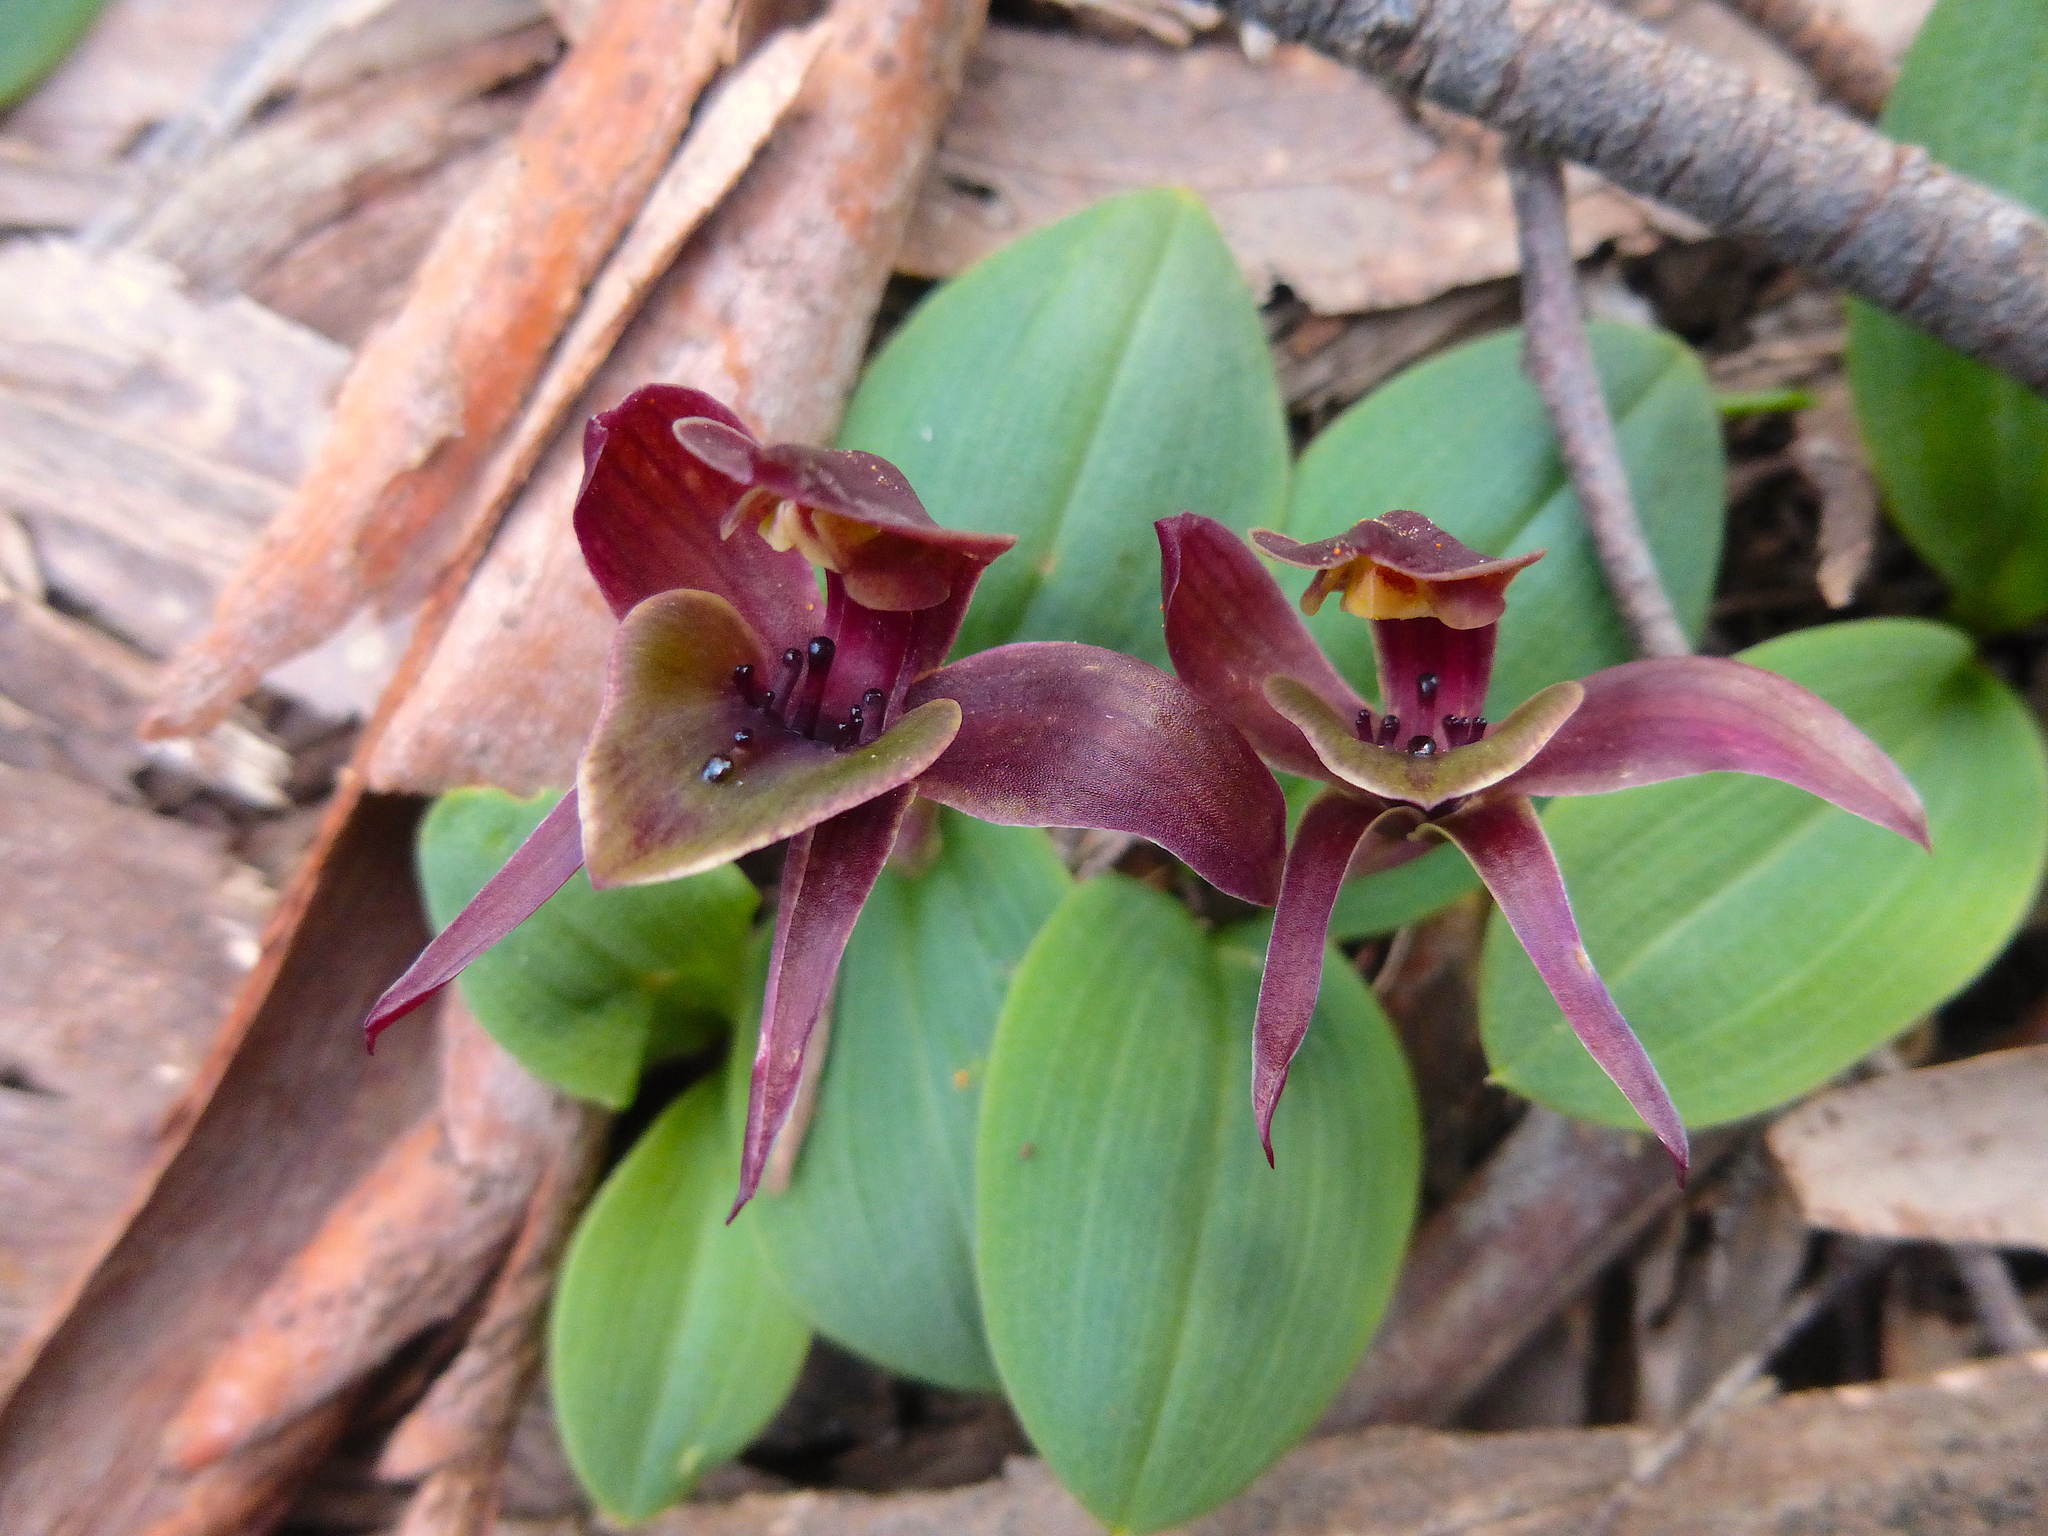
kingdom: Plantae
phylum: Tracheophyta
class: Liliopsida
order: Asparagales
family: Orchidaceae
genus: Chiloglottis
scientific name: Chiloglottis valida
